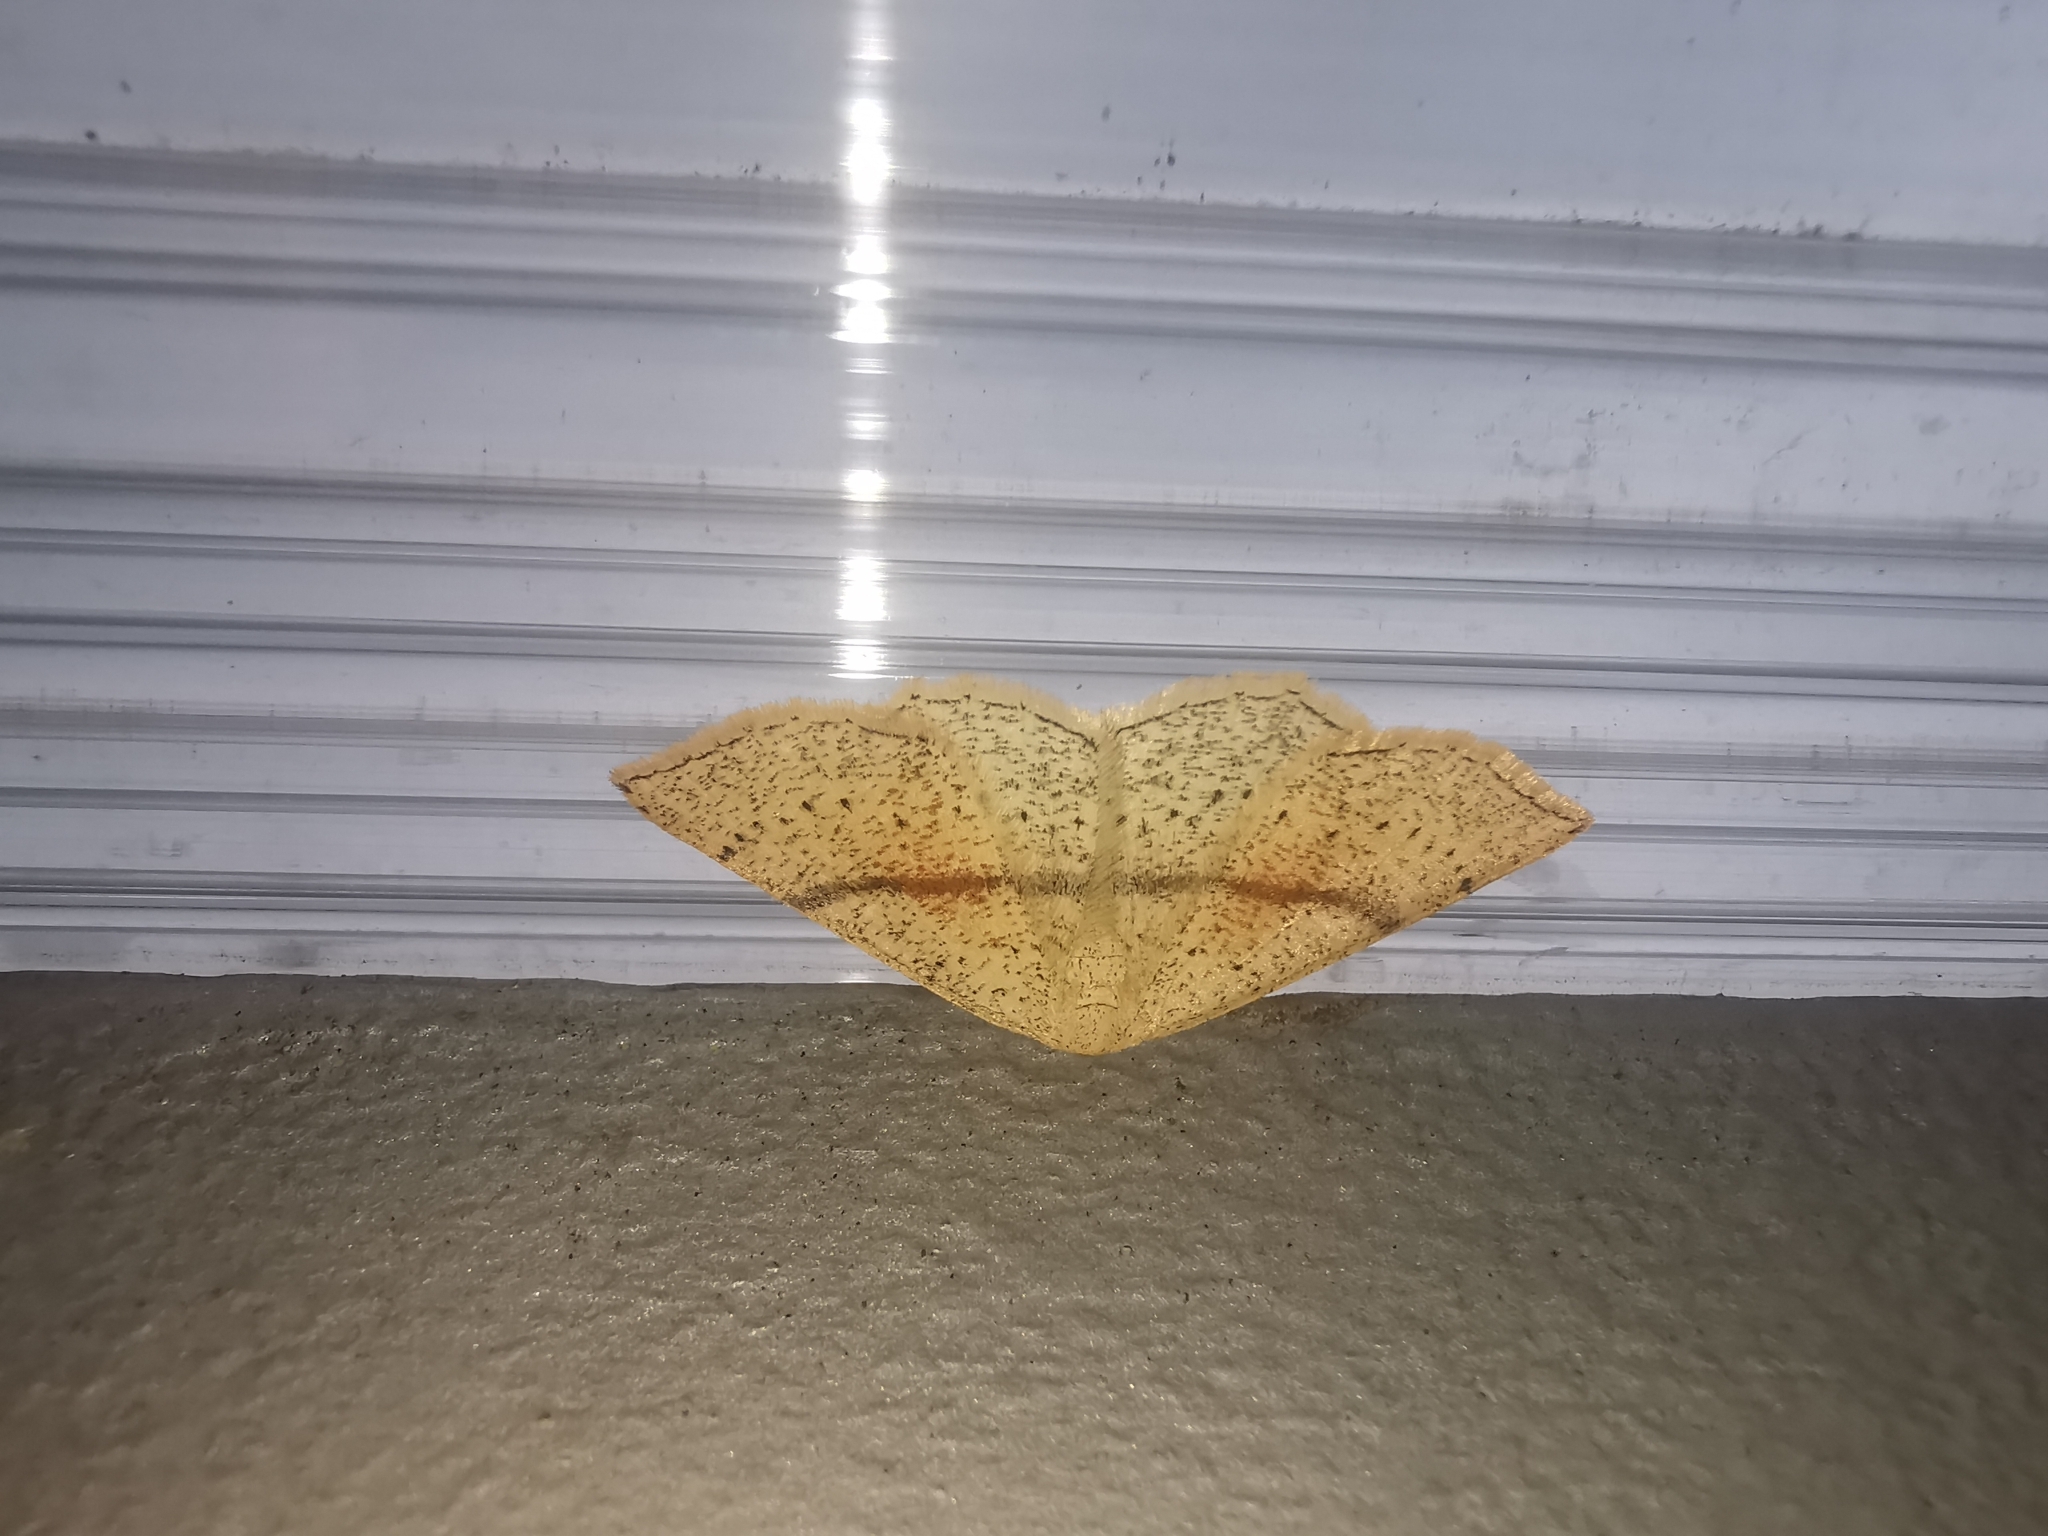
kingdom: Animalia
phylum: Arthropoda
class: Insecta
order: Lepidoptera
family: Geometridae
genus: Cyclophora
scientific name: Cyclophora punctaria
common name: Maiden's blush
